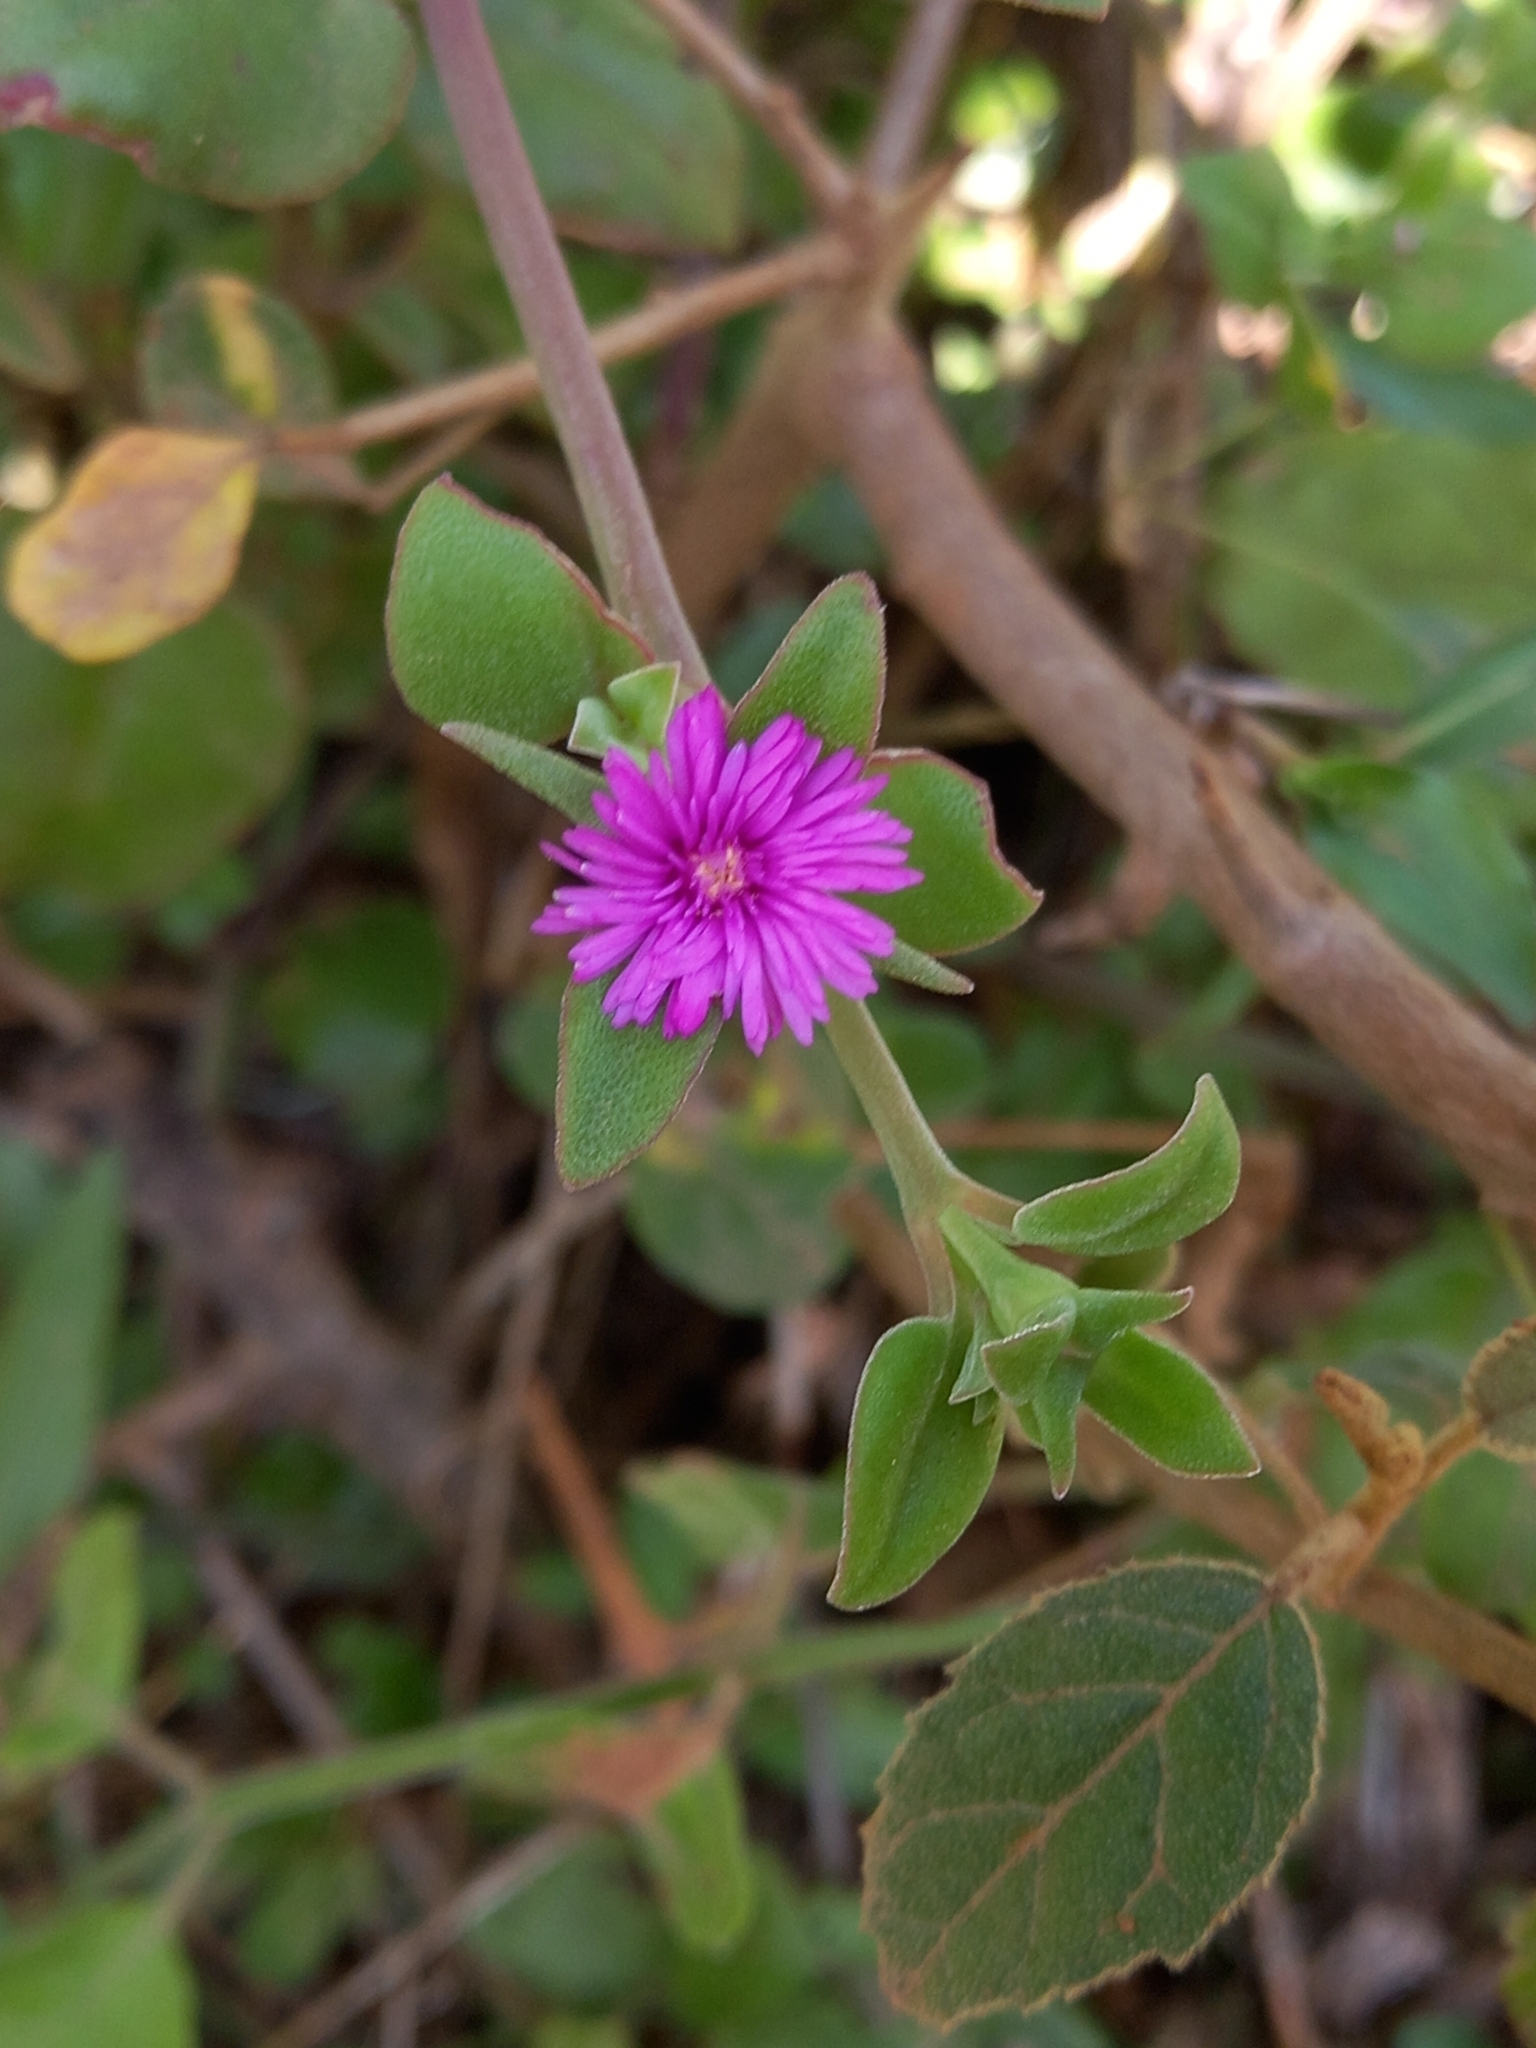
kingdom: Plantae
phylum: Tracheophyta
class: Magnoliopsida
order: Caryophyllales
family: Aizoaceae
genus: Mesembryanthemum
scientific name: Mesembryanthemum cordifolium
